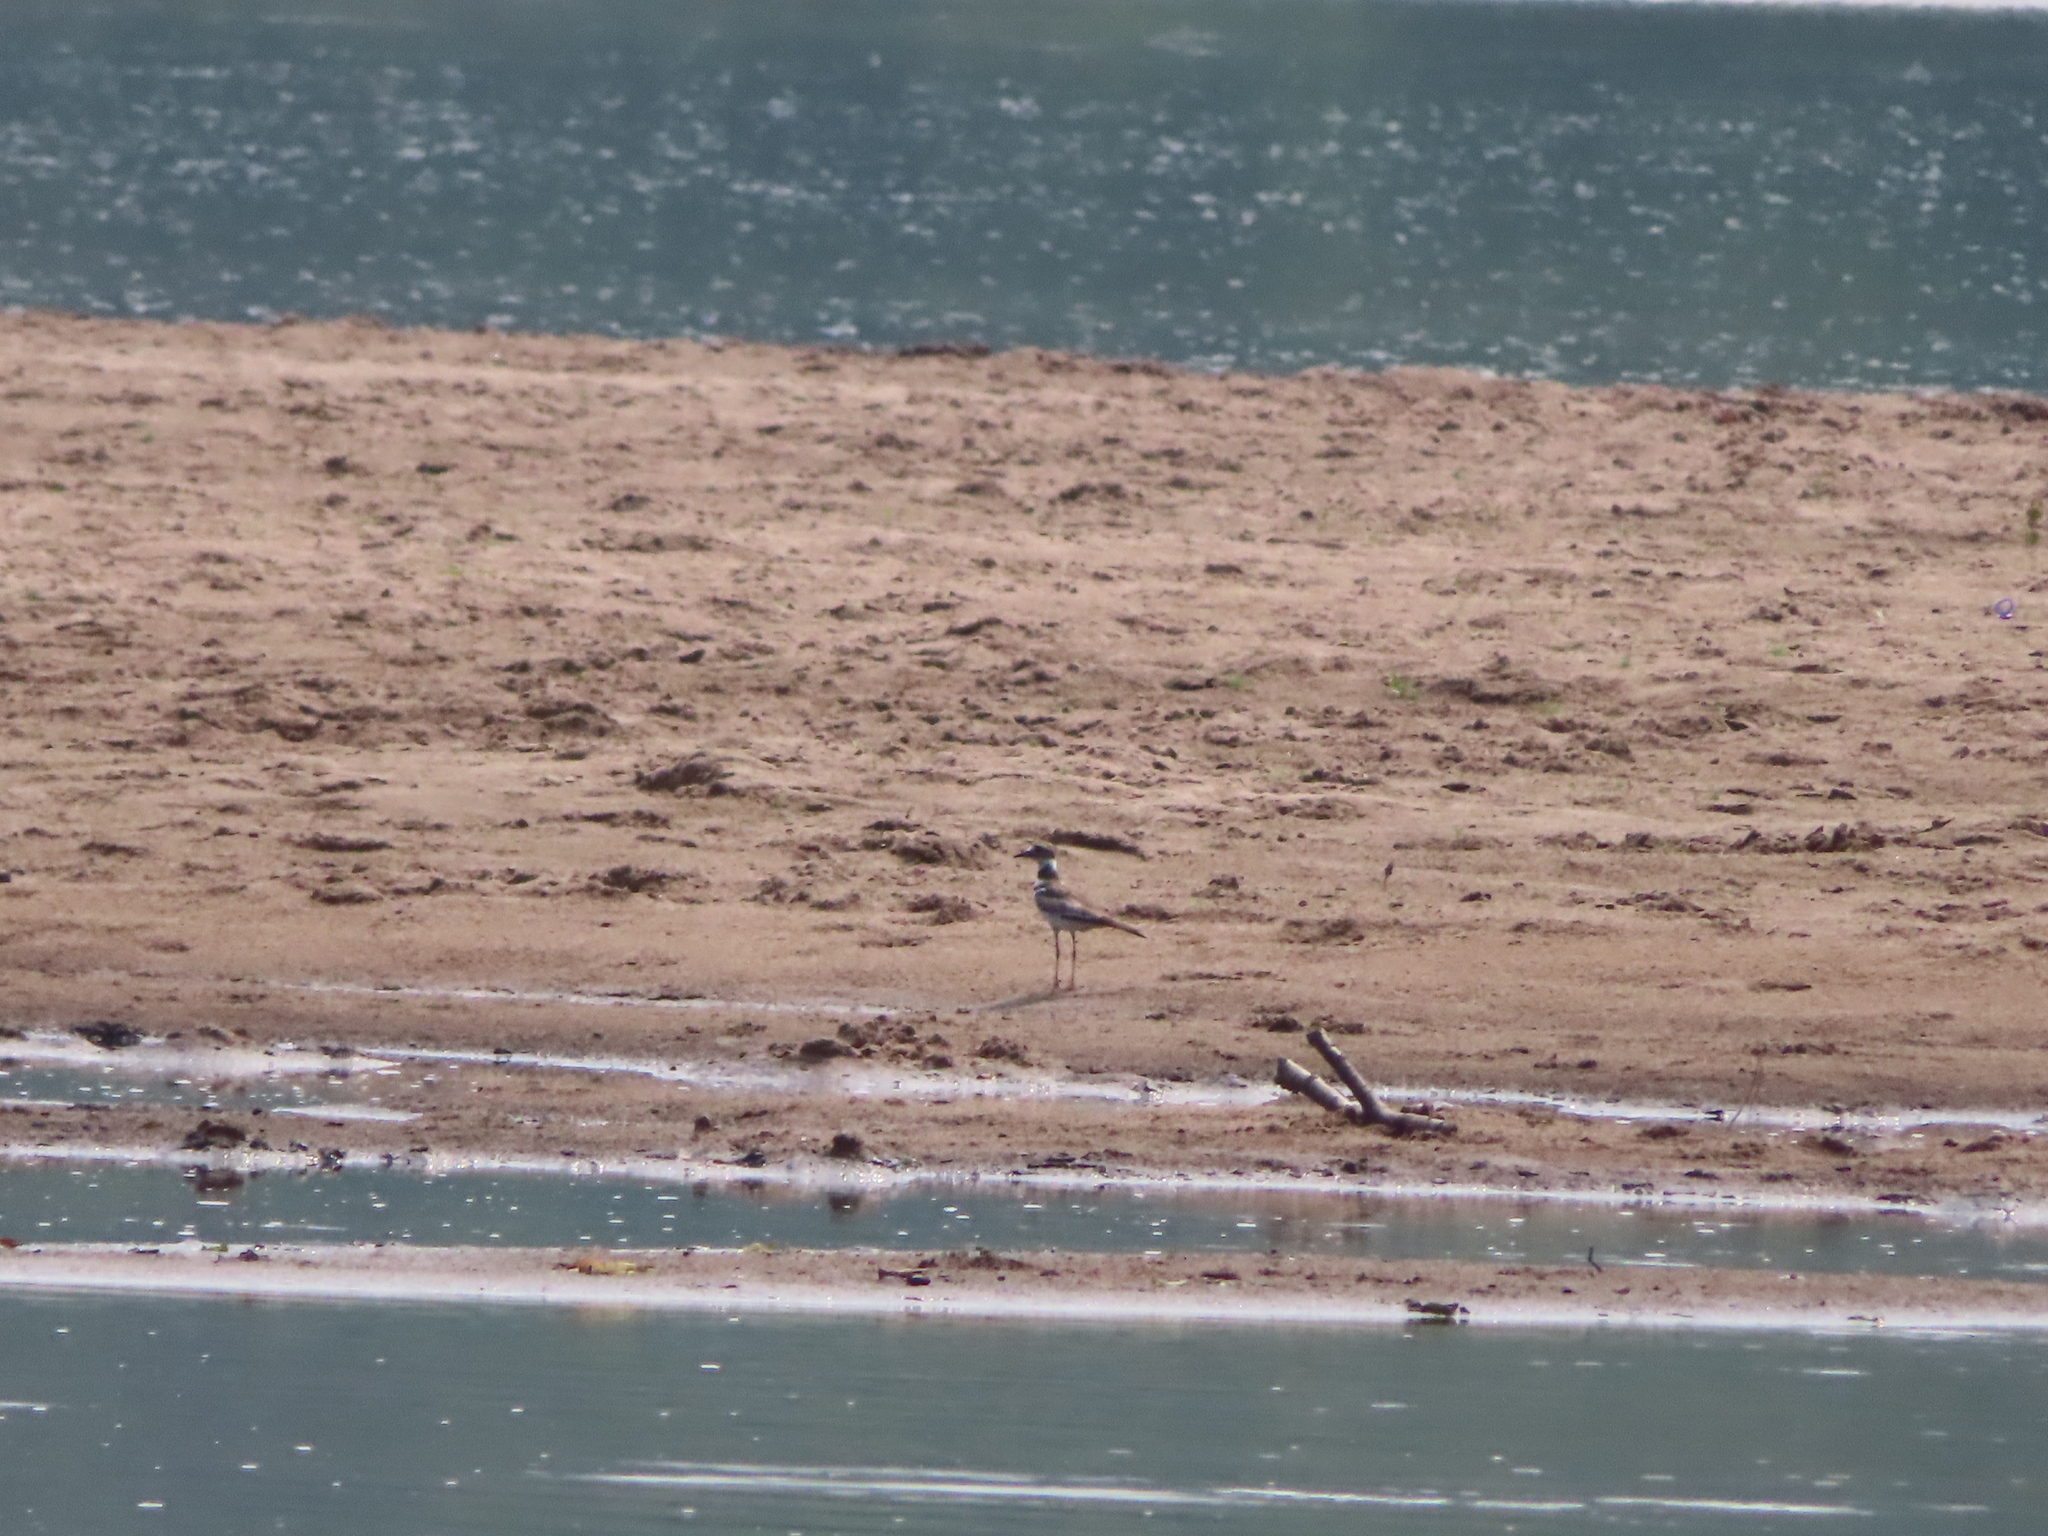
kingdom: Animalia
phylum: Chordata
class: Aves
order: Charadriiformes
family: Charadriidae
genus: Charadrius
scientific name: Charadrius vociferus
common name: Killdeer
